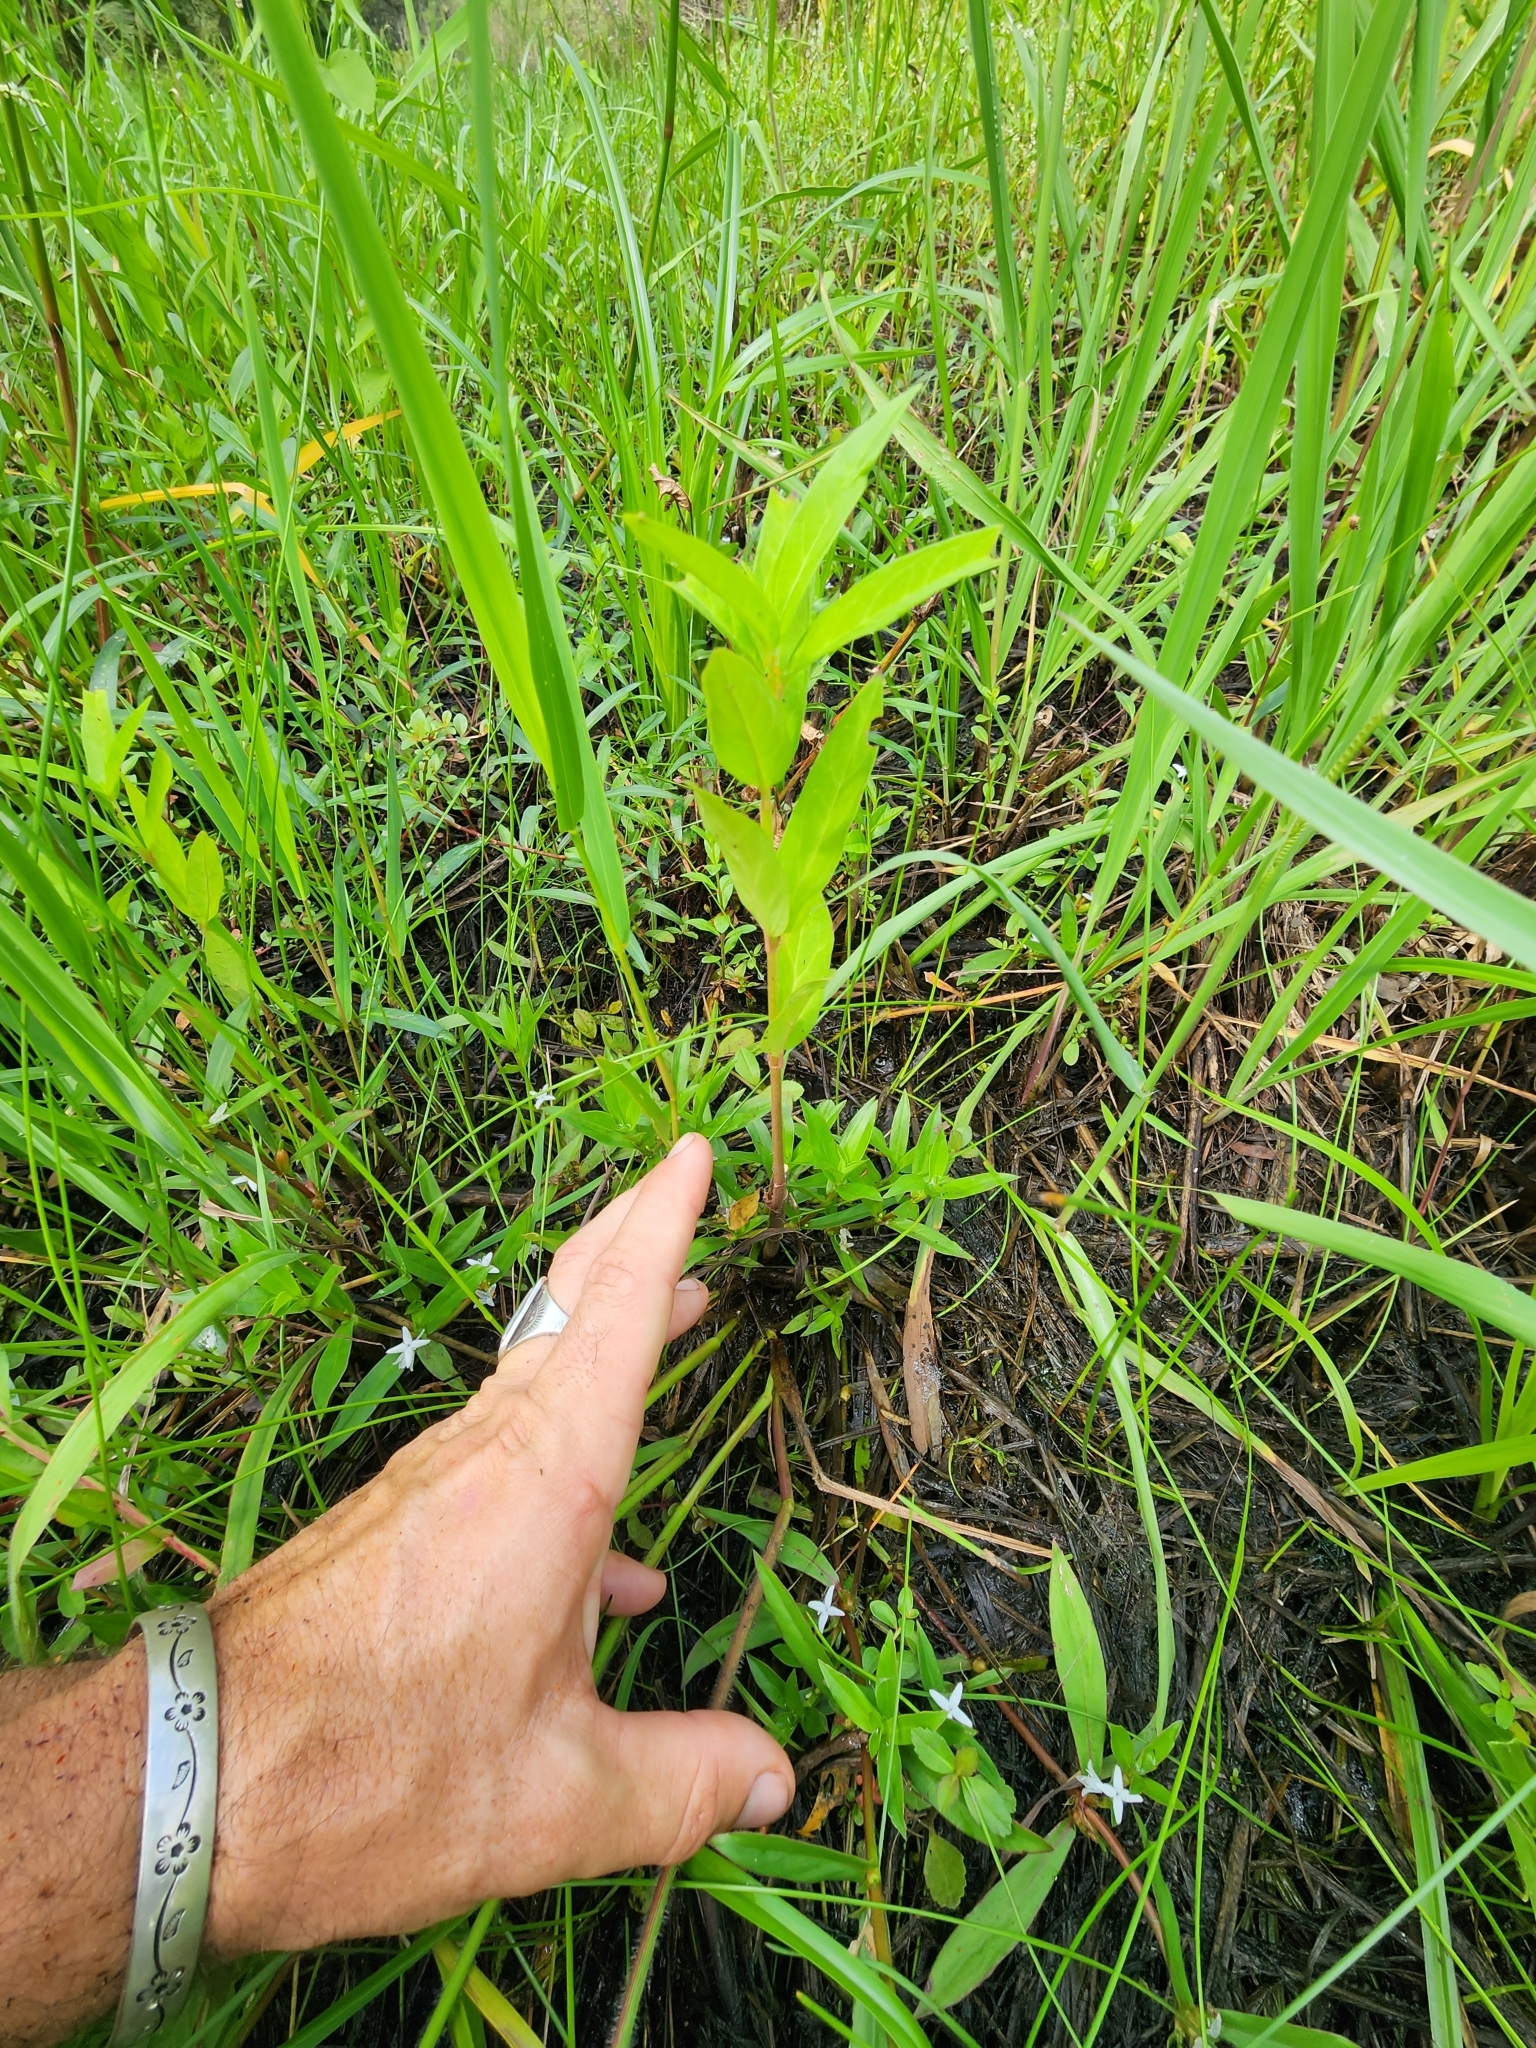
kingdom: Plantae
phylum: Tracheophyta
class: Magnoliopsida
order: Gentianales
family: Apocynaceae
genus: Asclepias
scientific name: Asclepias incarnata
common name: Swamp milkweed
